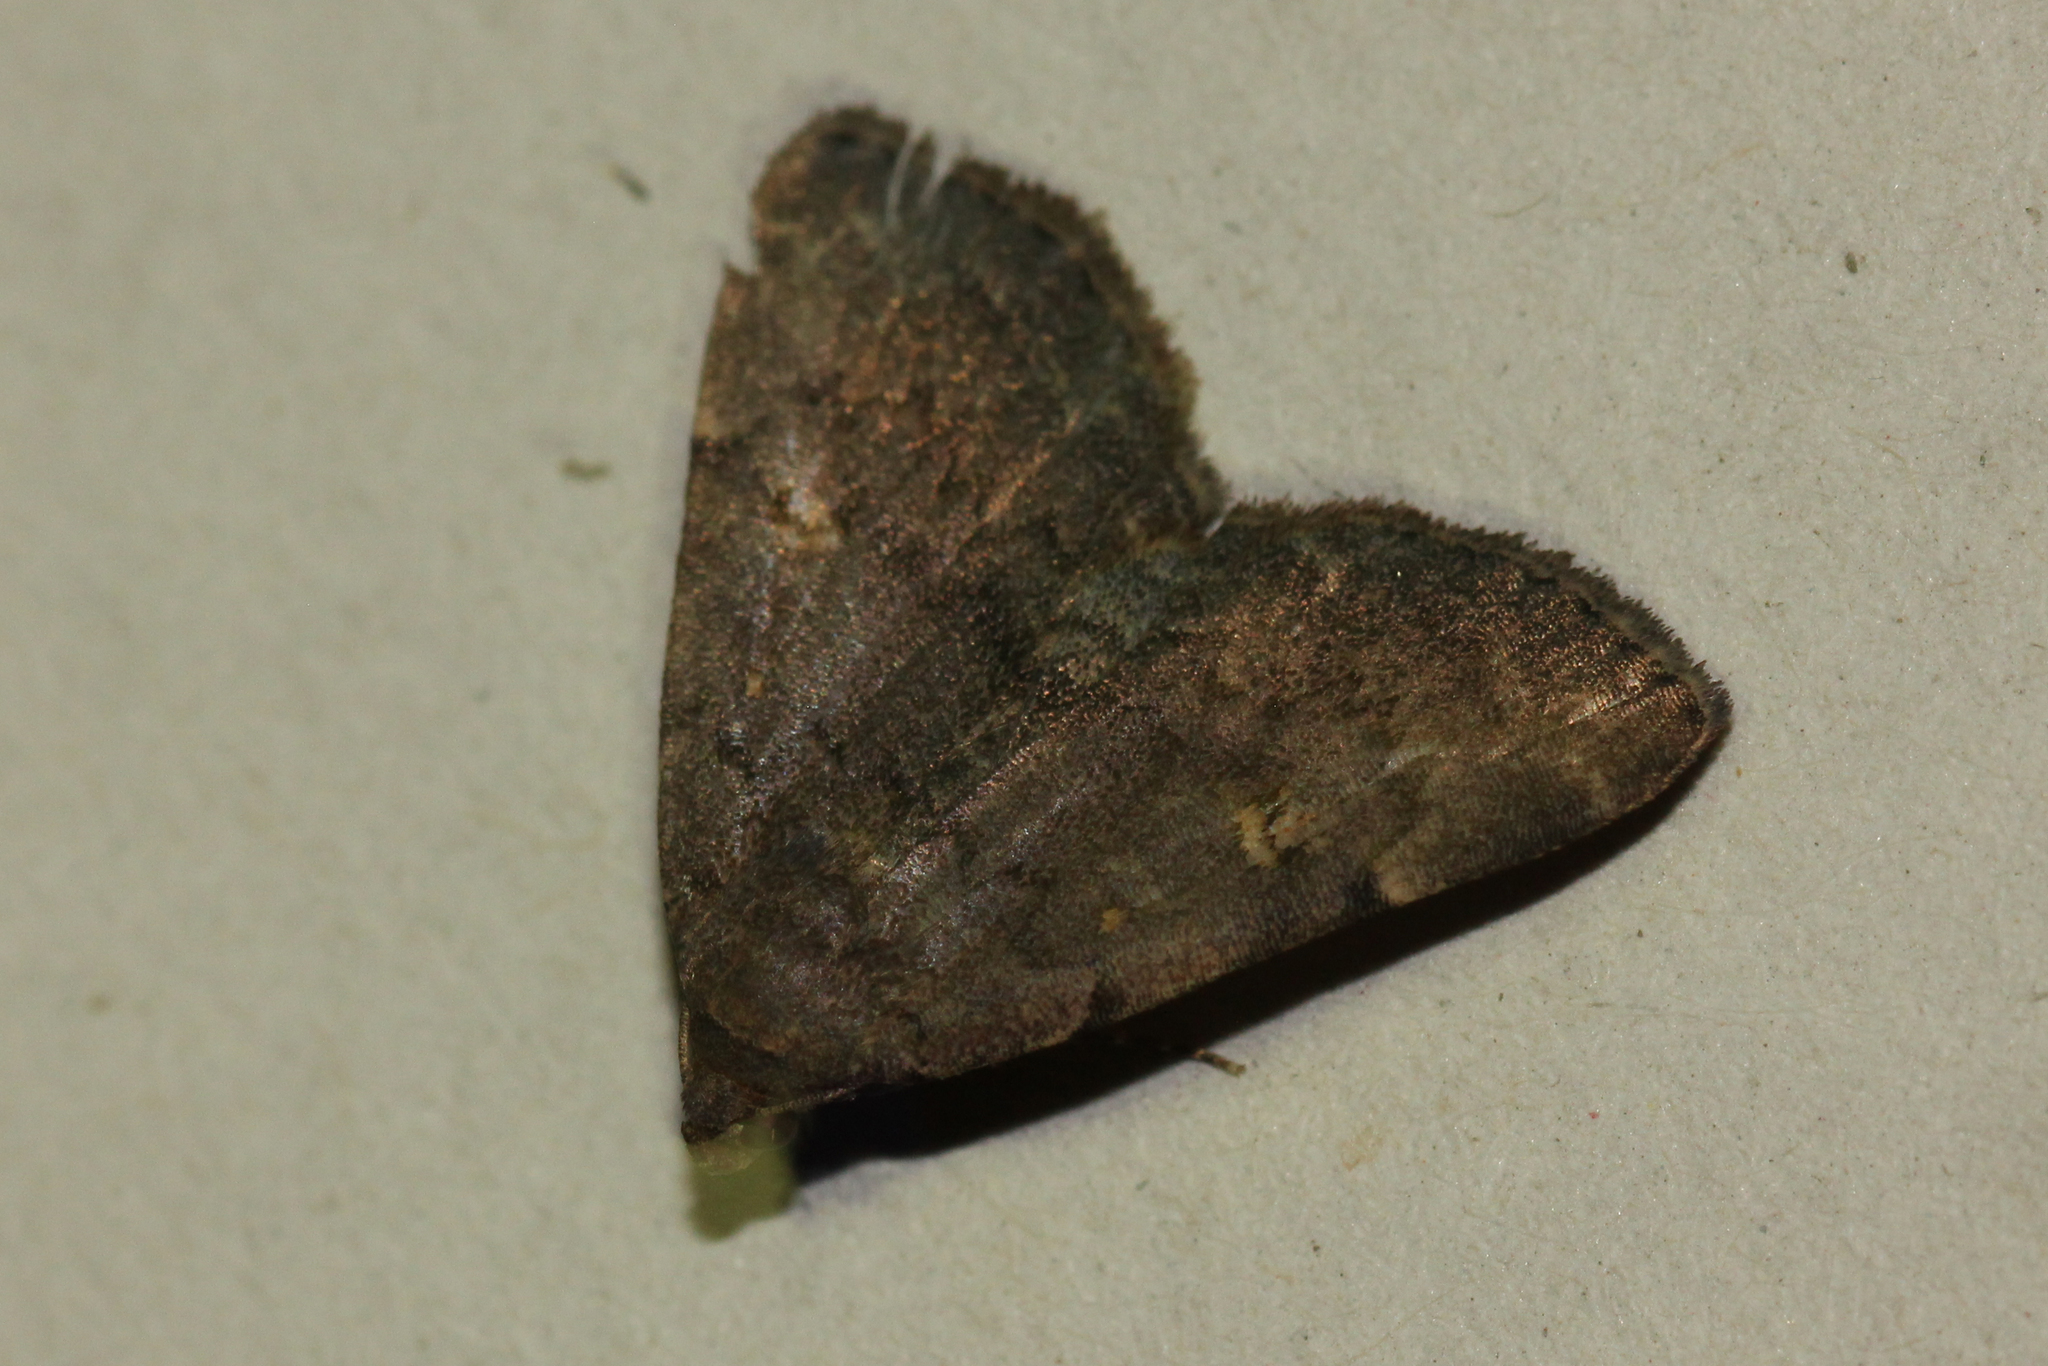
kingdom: Animalia
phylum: Arthropoda
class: Insecta
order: Lepidoptera
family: Erebidae
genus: Idia
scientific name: Idia aemula
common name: Common idia moth
